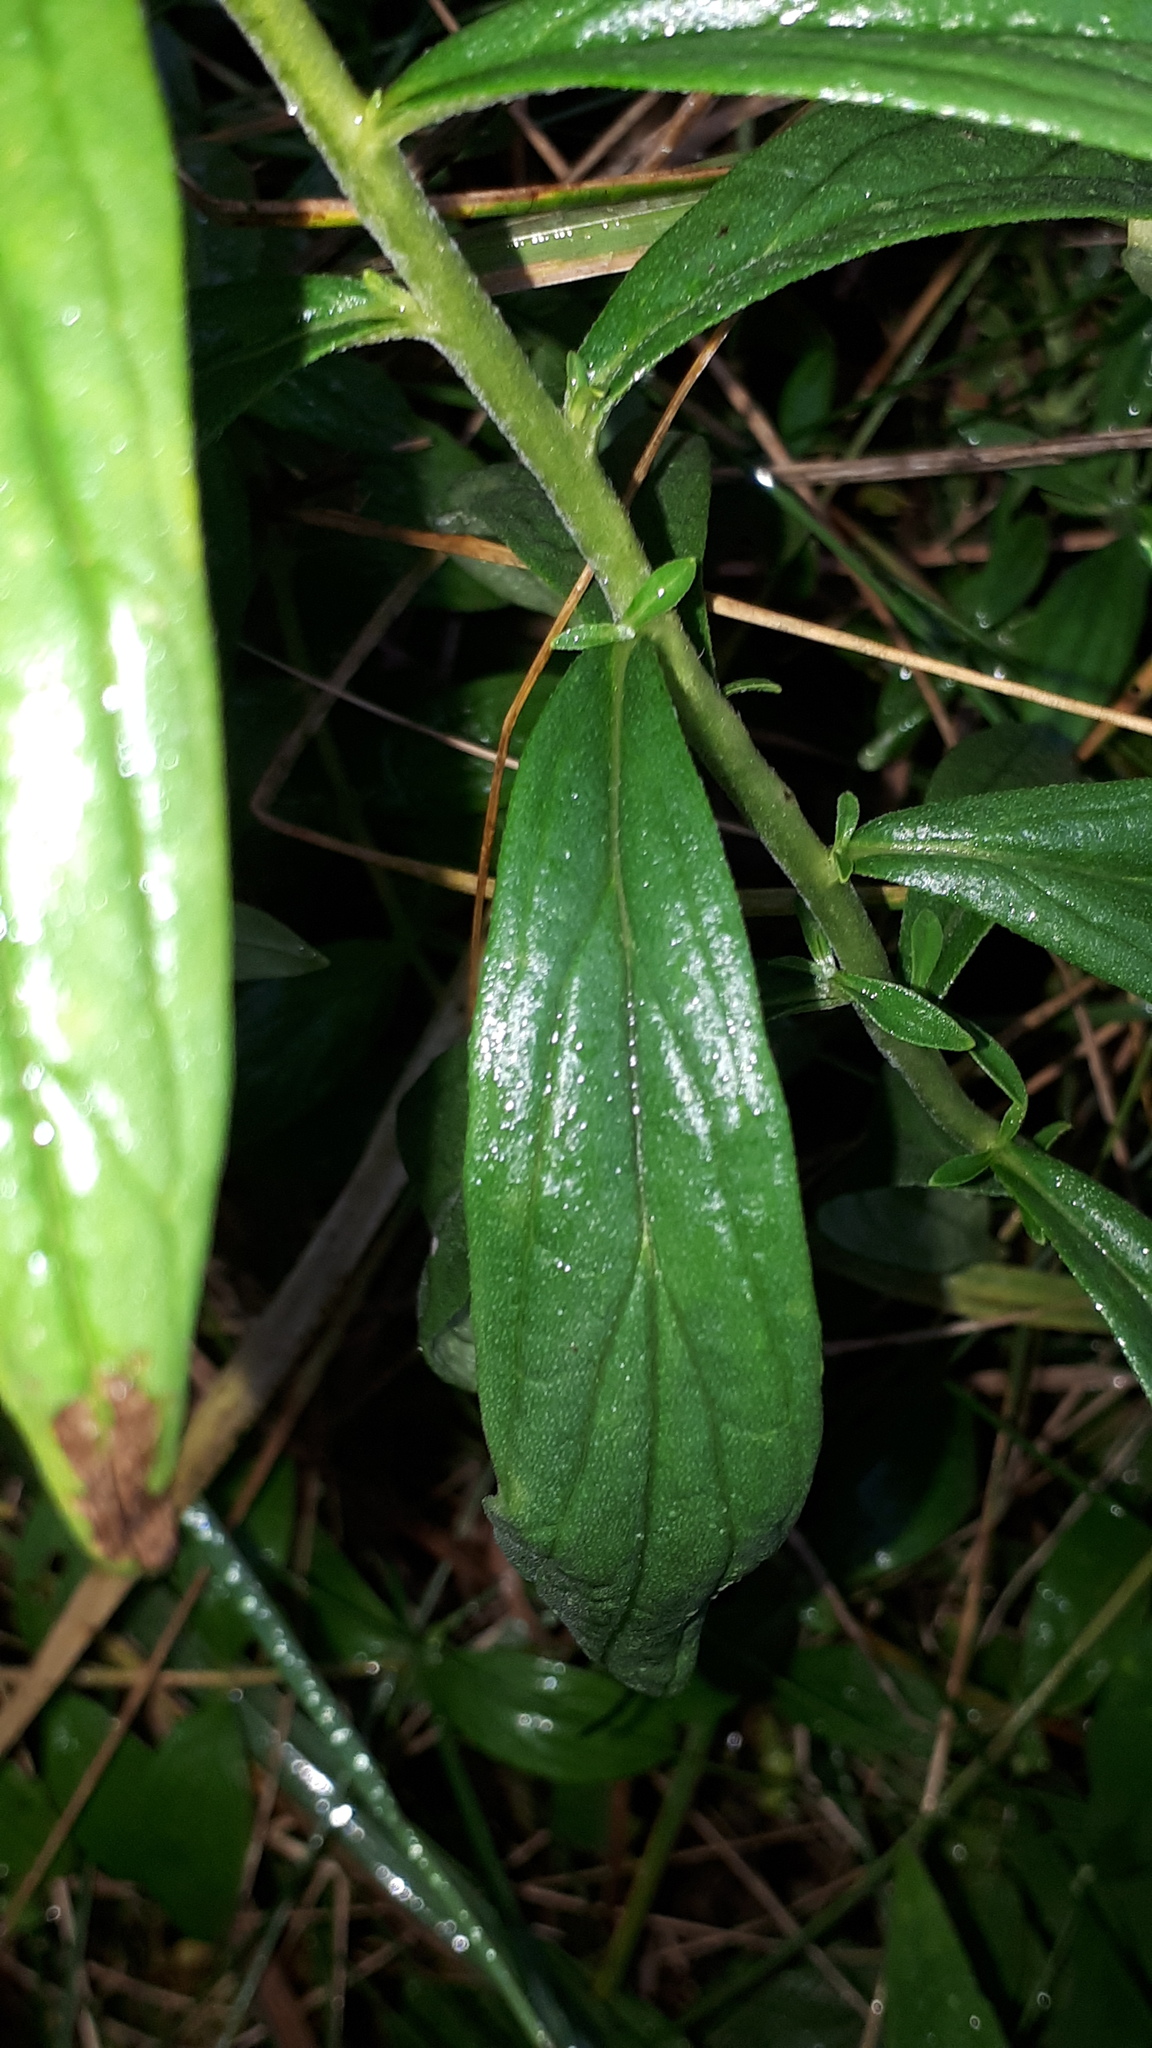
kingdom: Plantae
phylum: Tracheophyta
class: Magnoliopsida
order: Boraginales
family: Boraginaceae
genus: Lithospermum
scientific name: Lithospermum officinale
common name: Common gromwell
